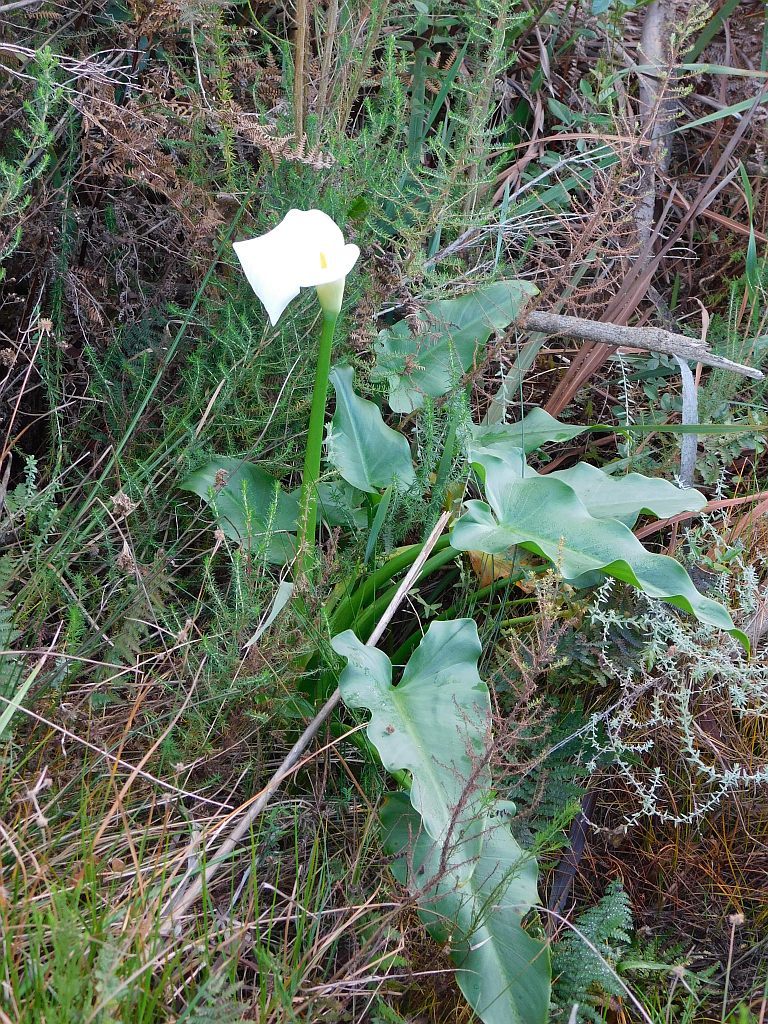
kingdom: Plantae
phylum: Tracheophyta
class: Liliopsida
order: Alismatales
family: Araceae
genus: Zantedeschia
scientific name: Zantedeschia aethiopica
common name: Altar-lily
